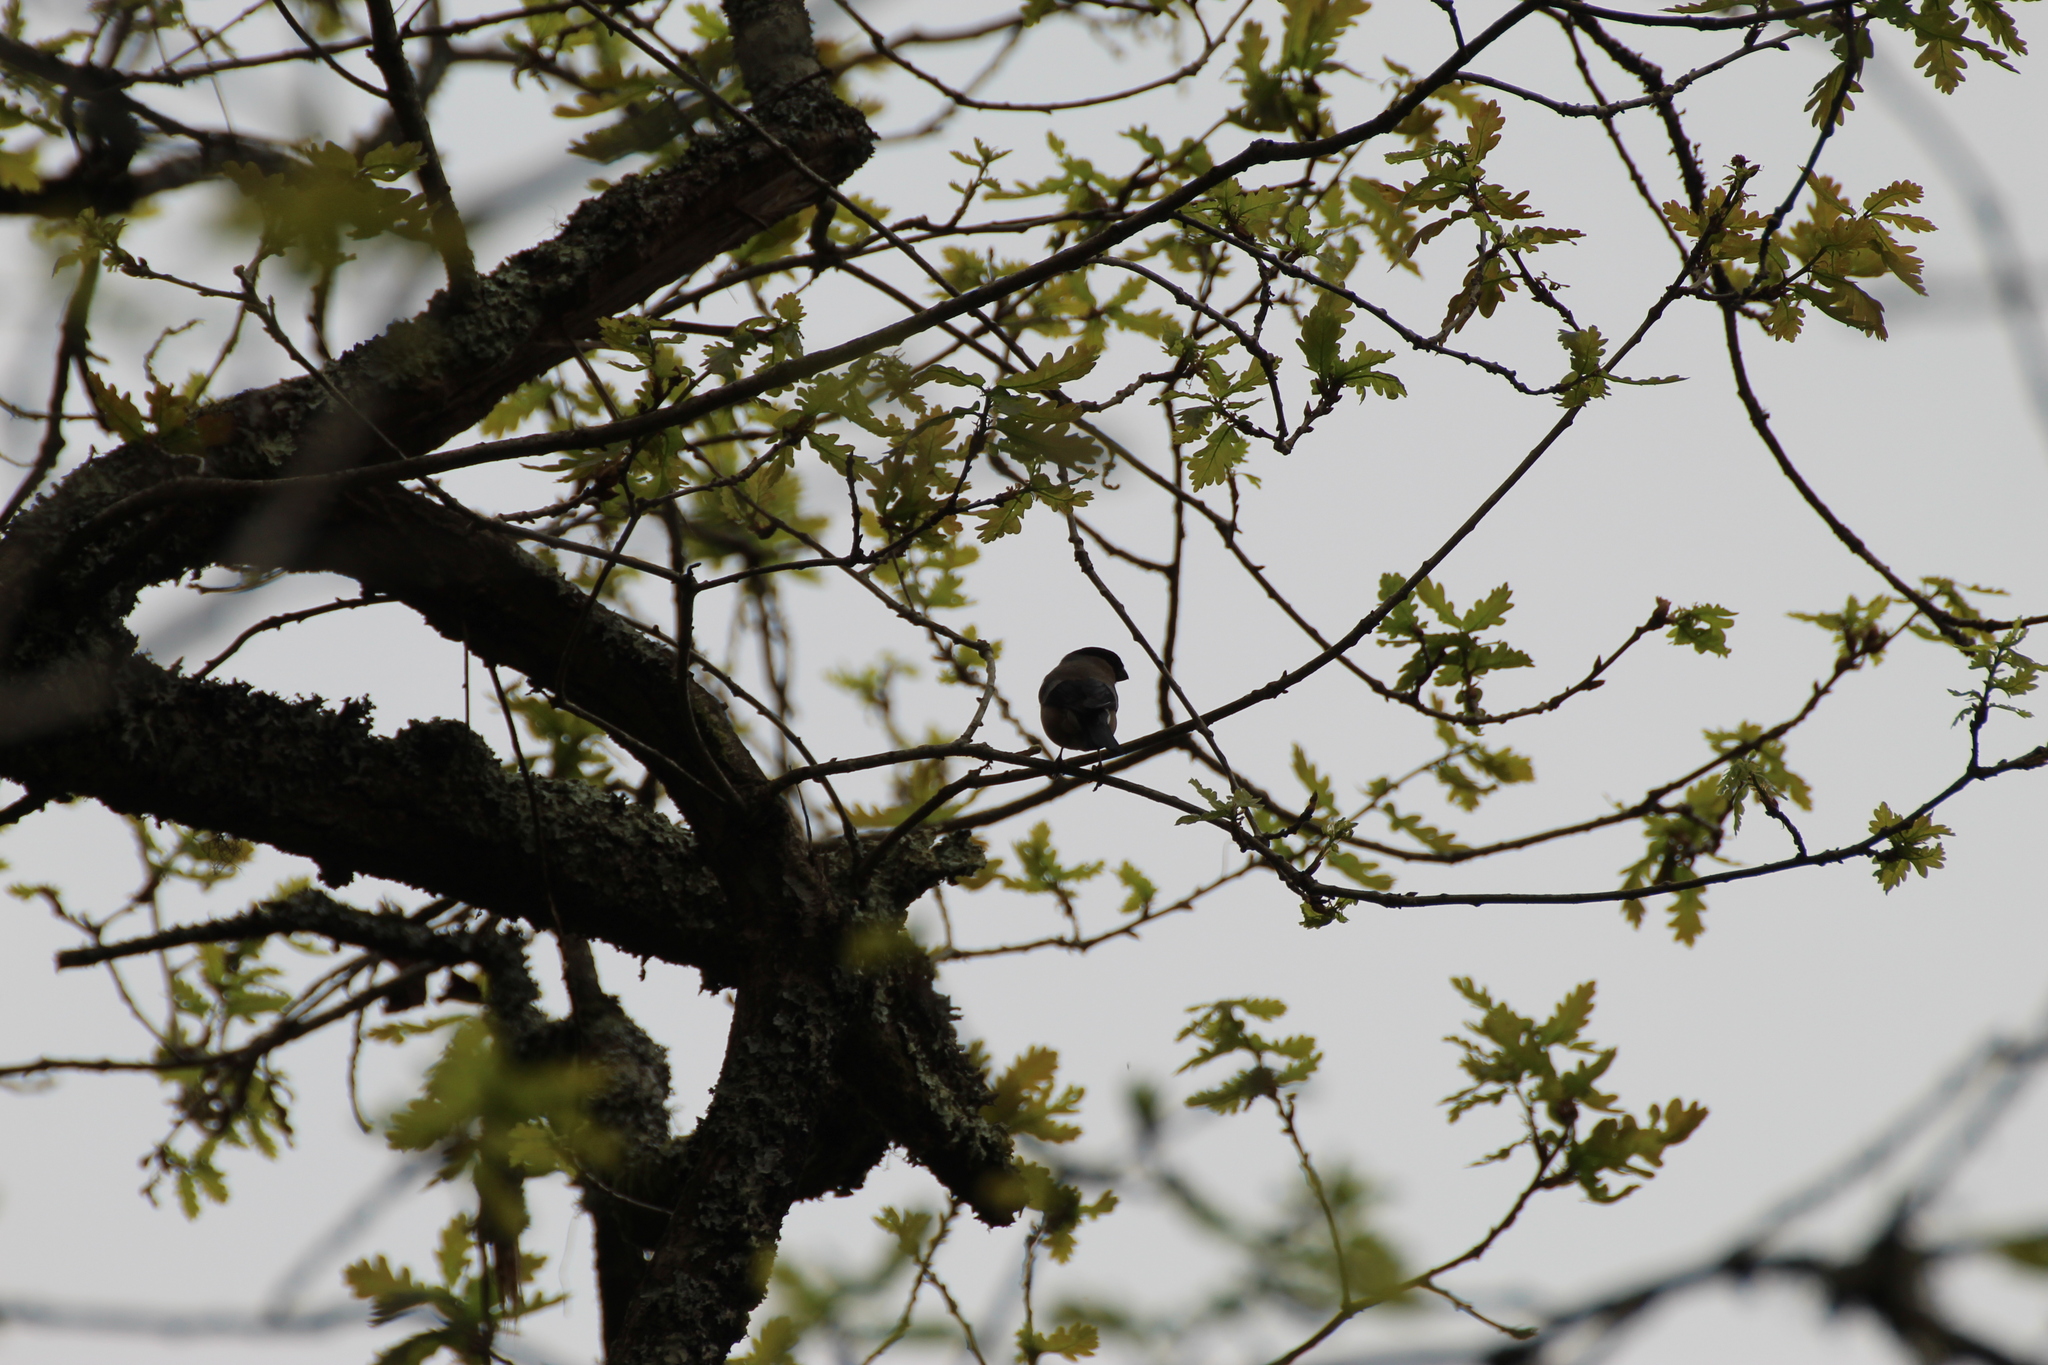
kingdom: Animalia
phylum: Chordata
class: Aves
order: Passeriformes
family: Fringillidae
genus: Pyrrhula
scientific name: Pyrrhula pyrrhula
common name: Eurasian bullfinch
